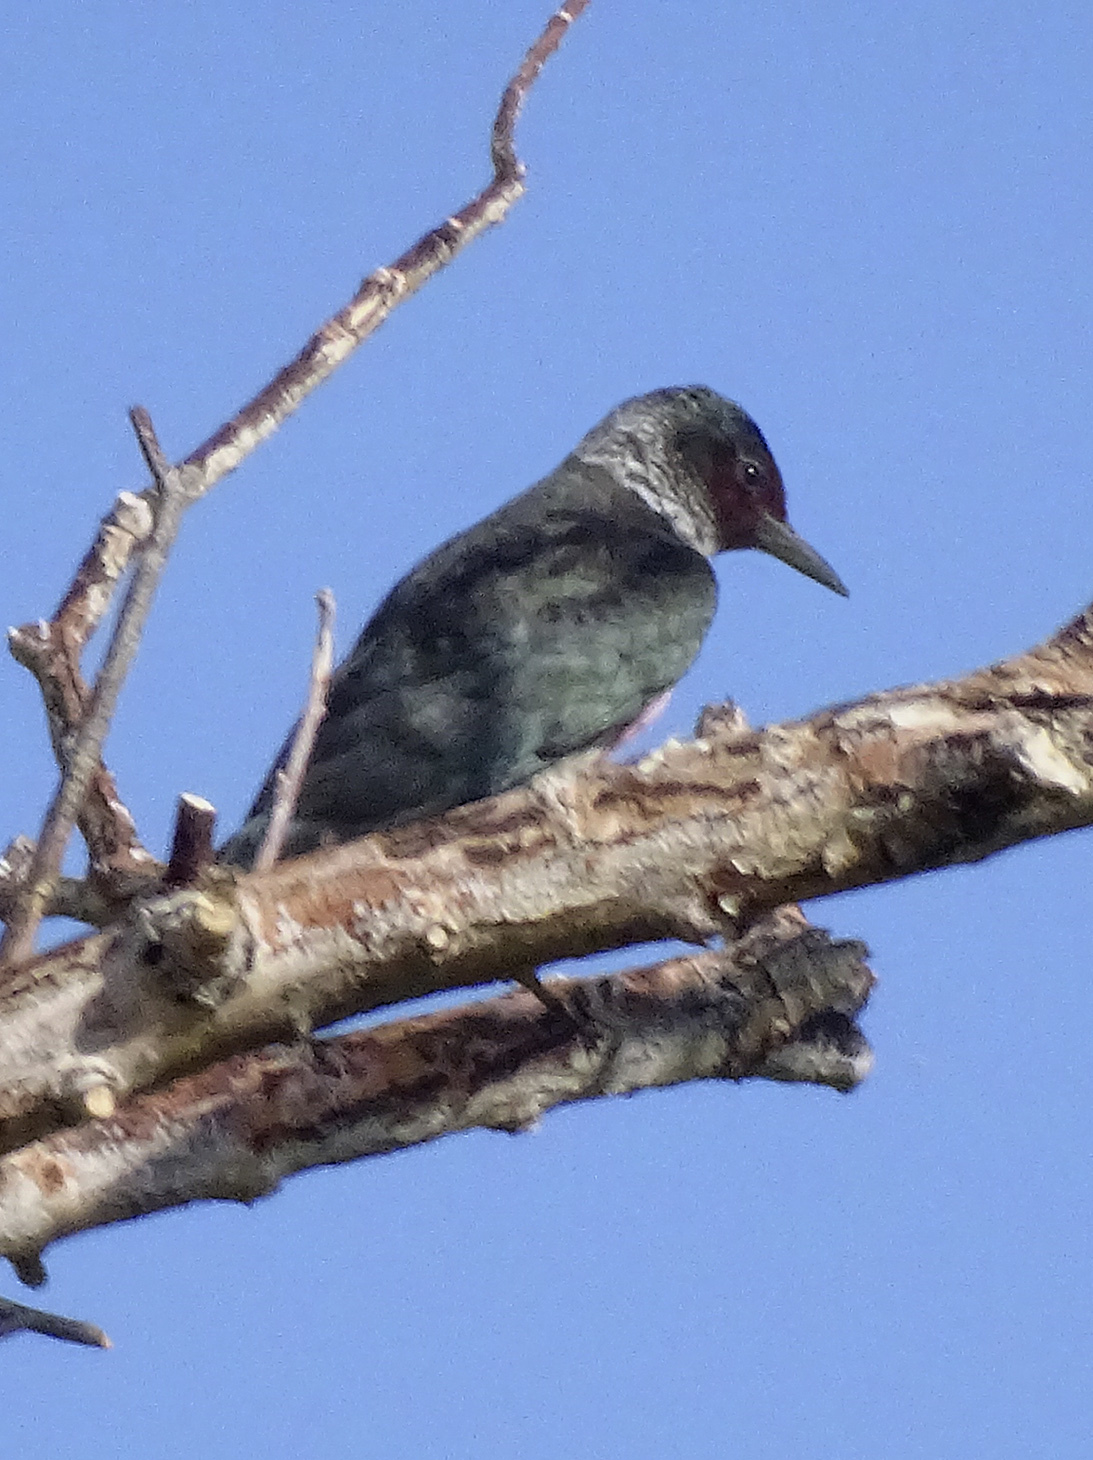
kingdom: Animalia
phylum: Chordata
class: Aves
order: Piciformes
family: Picidae
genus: Melanerpes
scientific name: Melanerpes lewis
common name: Lewis's woodpecker
